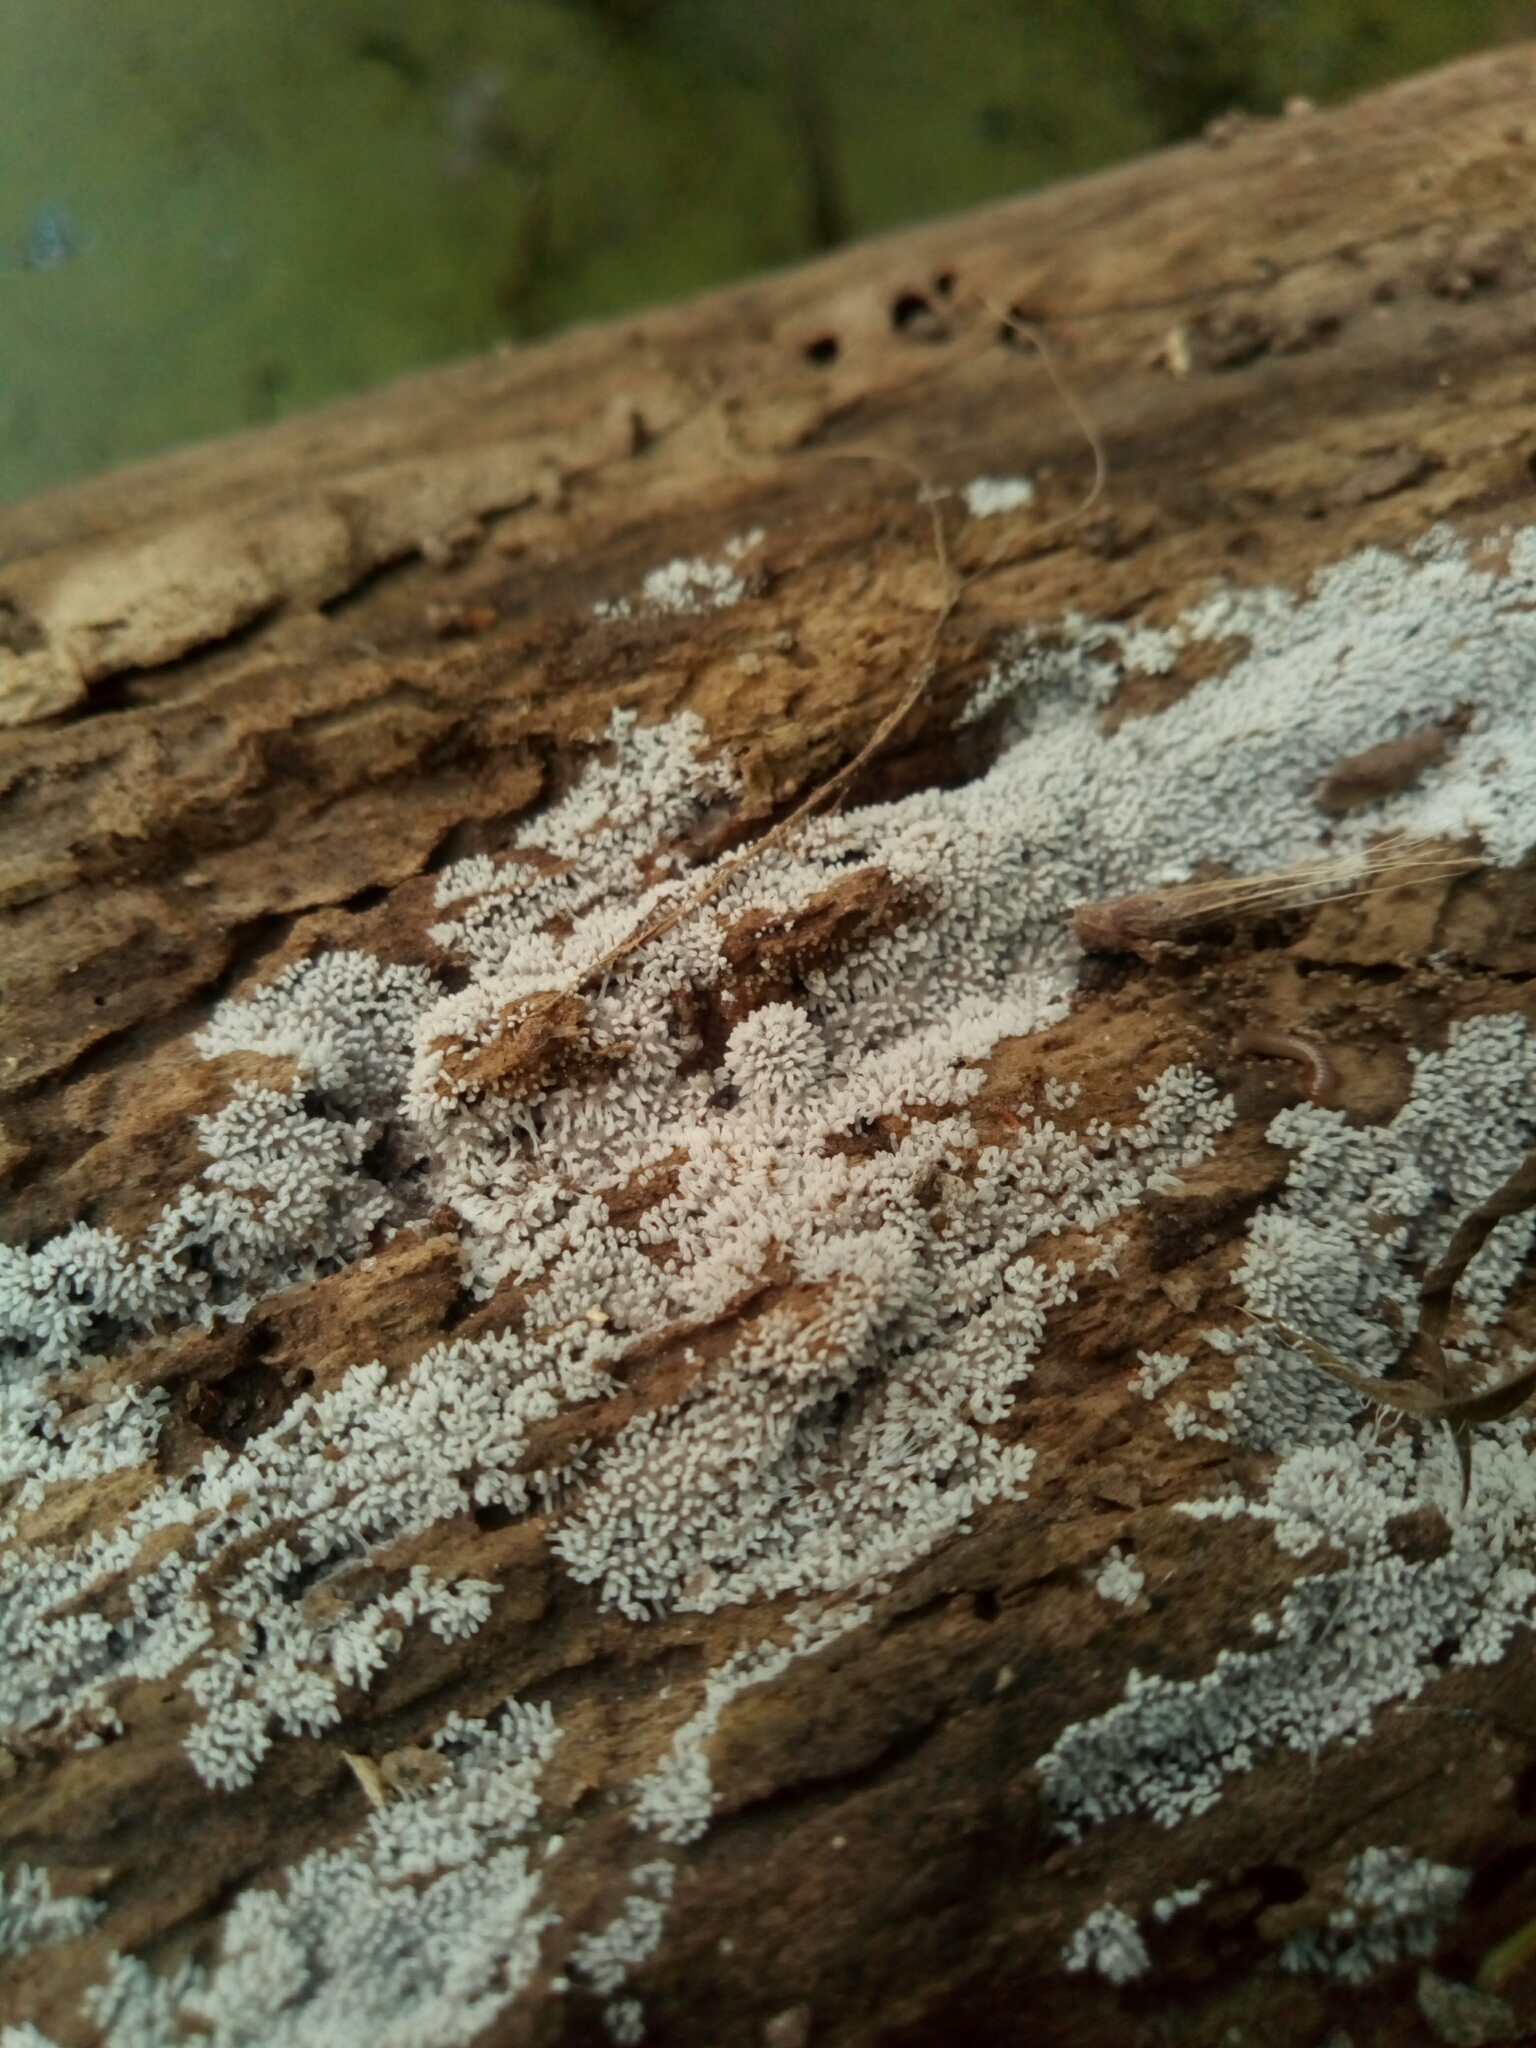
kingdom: Protozoa
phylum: Mycetozoa
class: Protosteliomycetes
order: Ceratiomyxales
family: Ceratiomyxaceae
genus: Ceratiomyxa
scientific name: Ceratiomyxa fruticulosa
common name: Honeycomb coral slime mold
